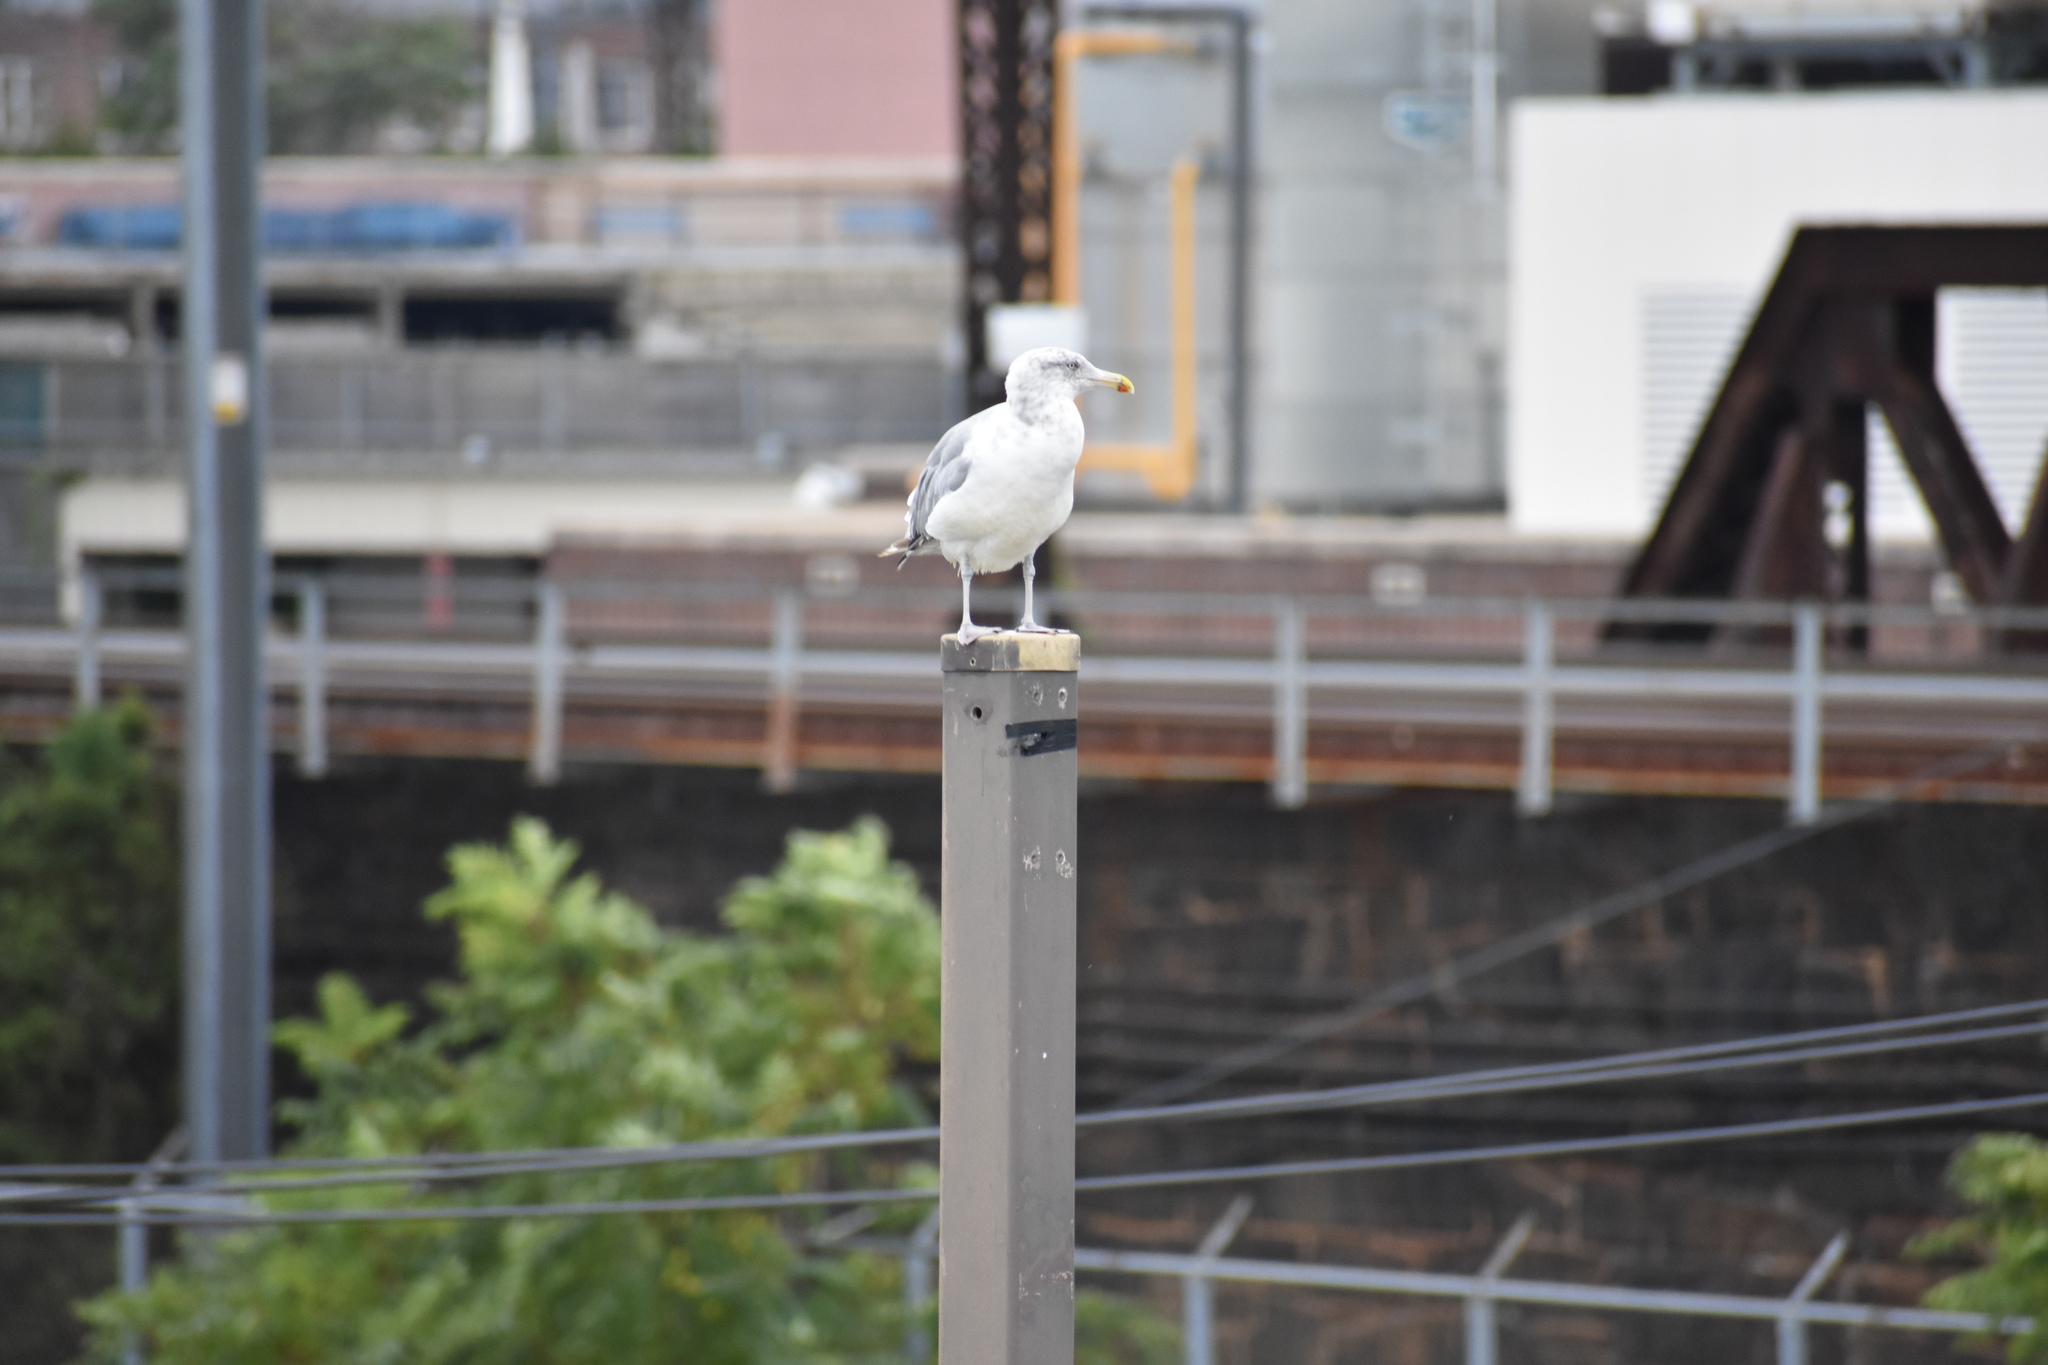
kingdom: Animalia
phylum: Chordata
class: Aves
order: Charadriiformes
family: Laridae
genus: Larus
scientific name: Larus argentatus
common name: Herring gull
